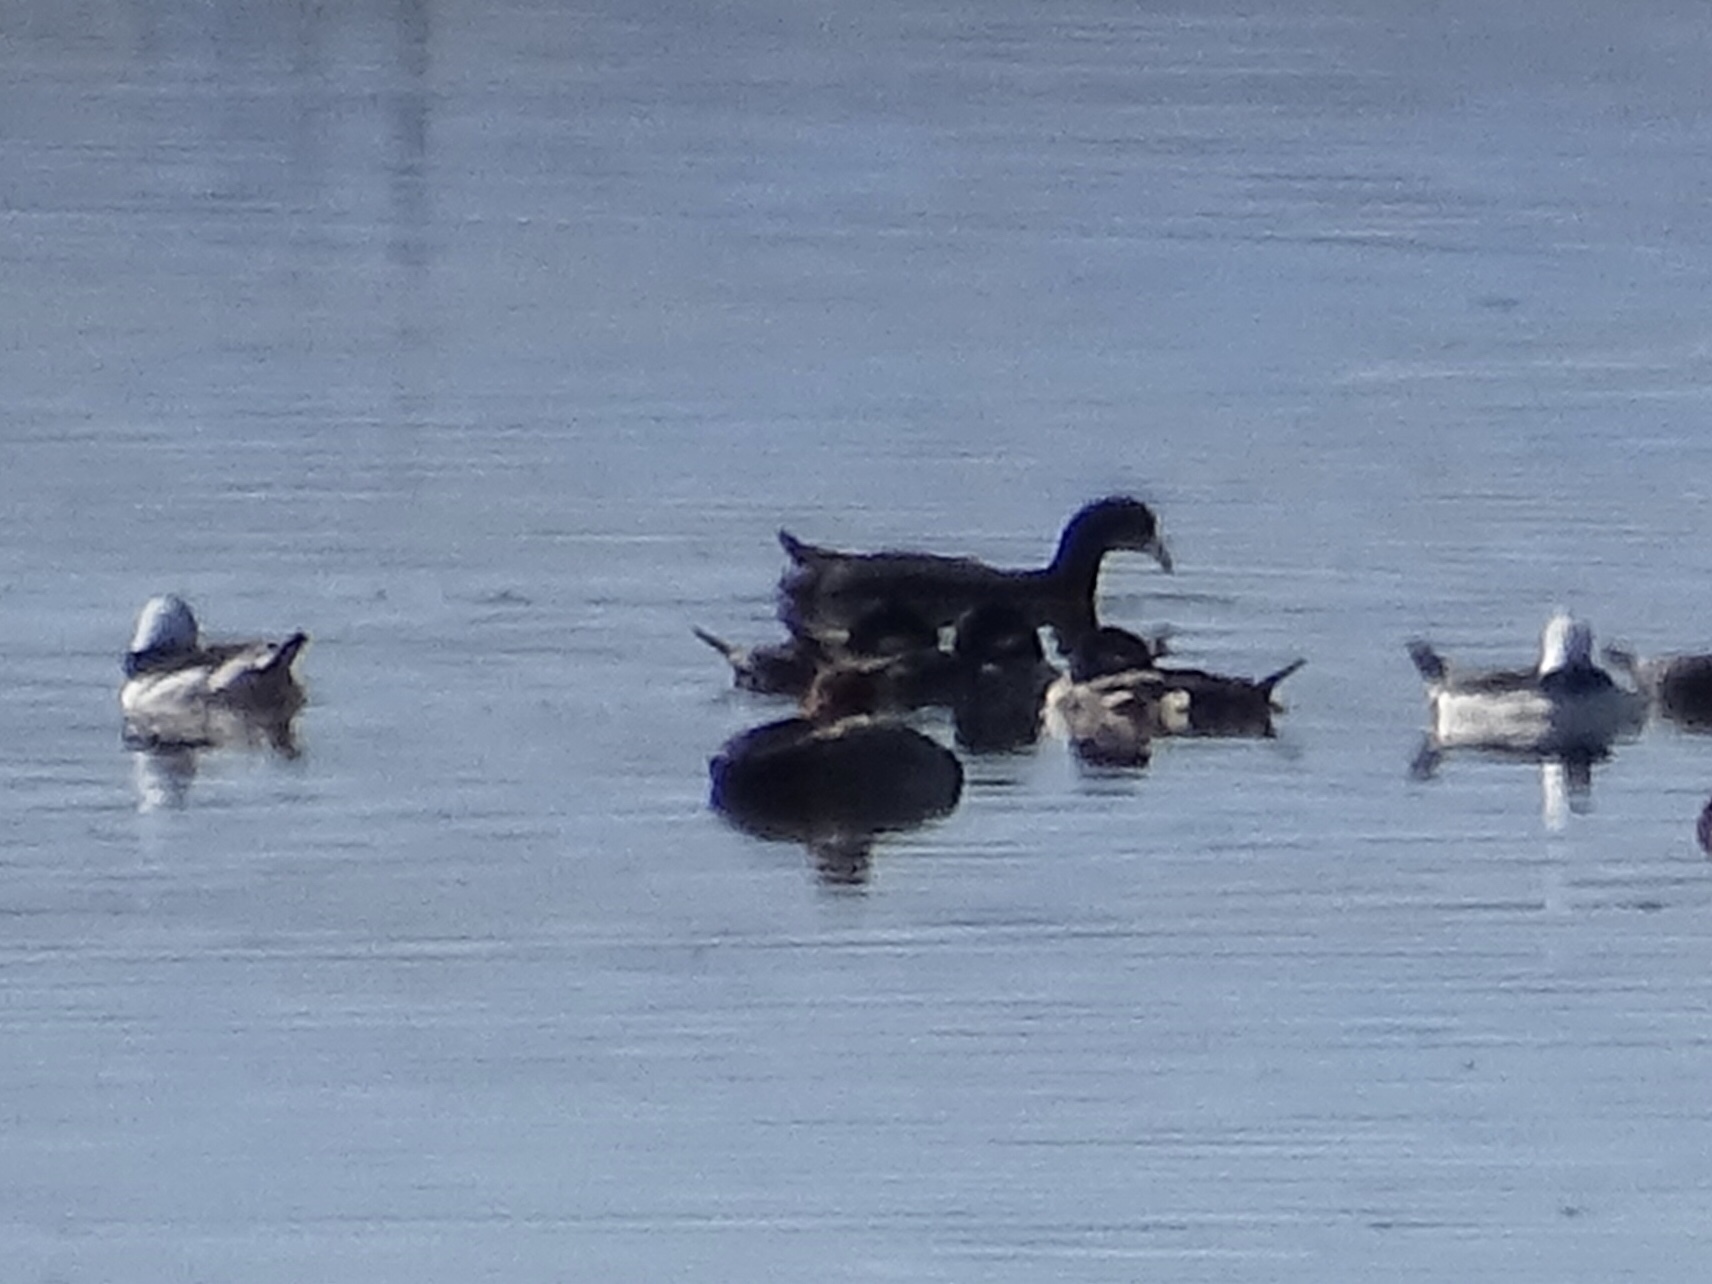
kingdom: Animalia
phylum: Chordata
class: Aves
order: Anseriformes
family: Anatidae
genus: Bucephala
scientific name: Bucephala albeola
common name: Bufflehead
